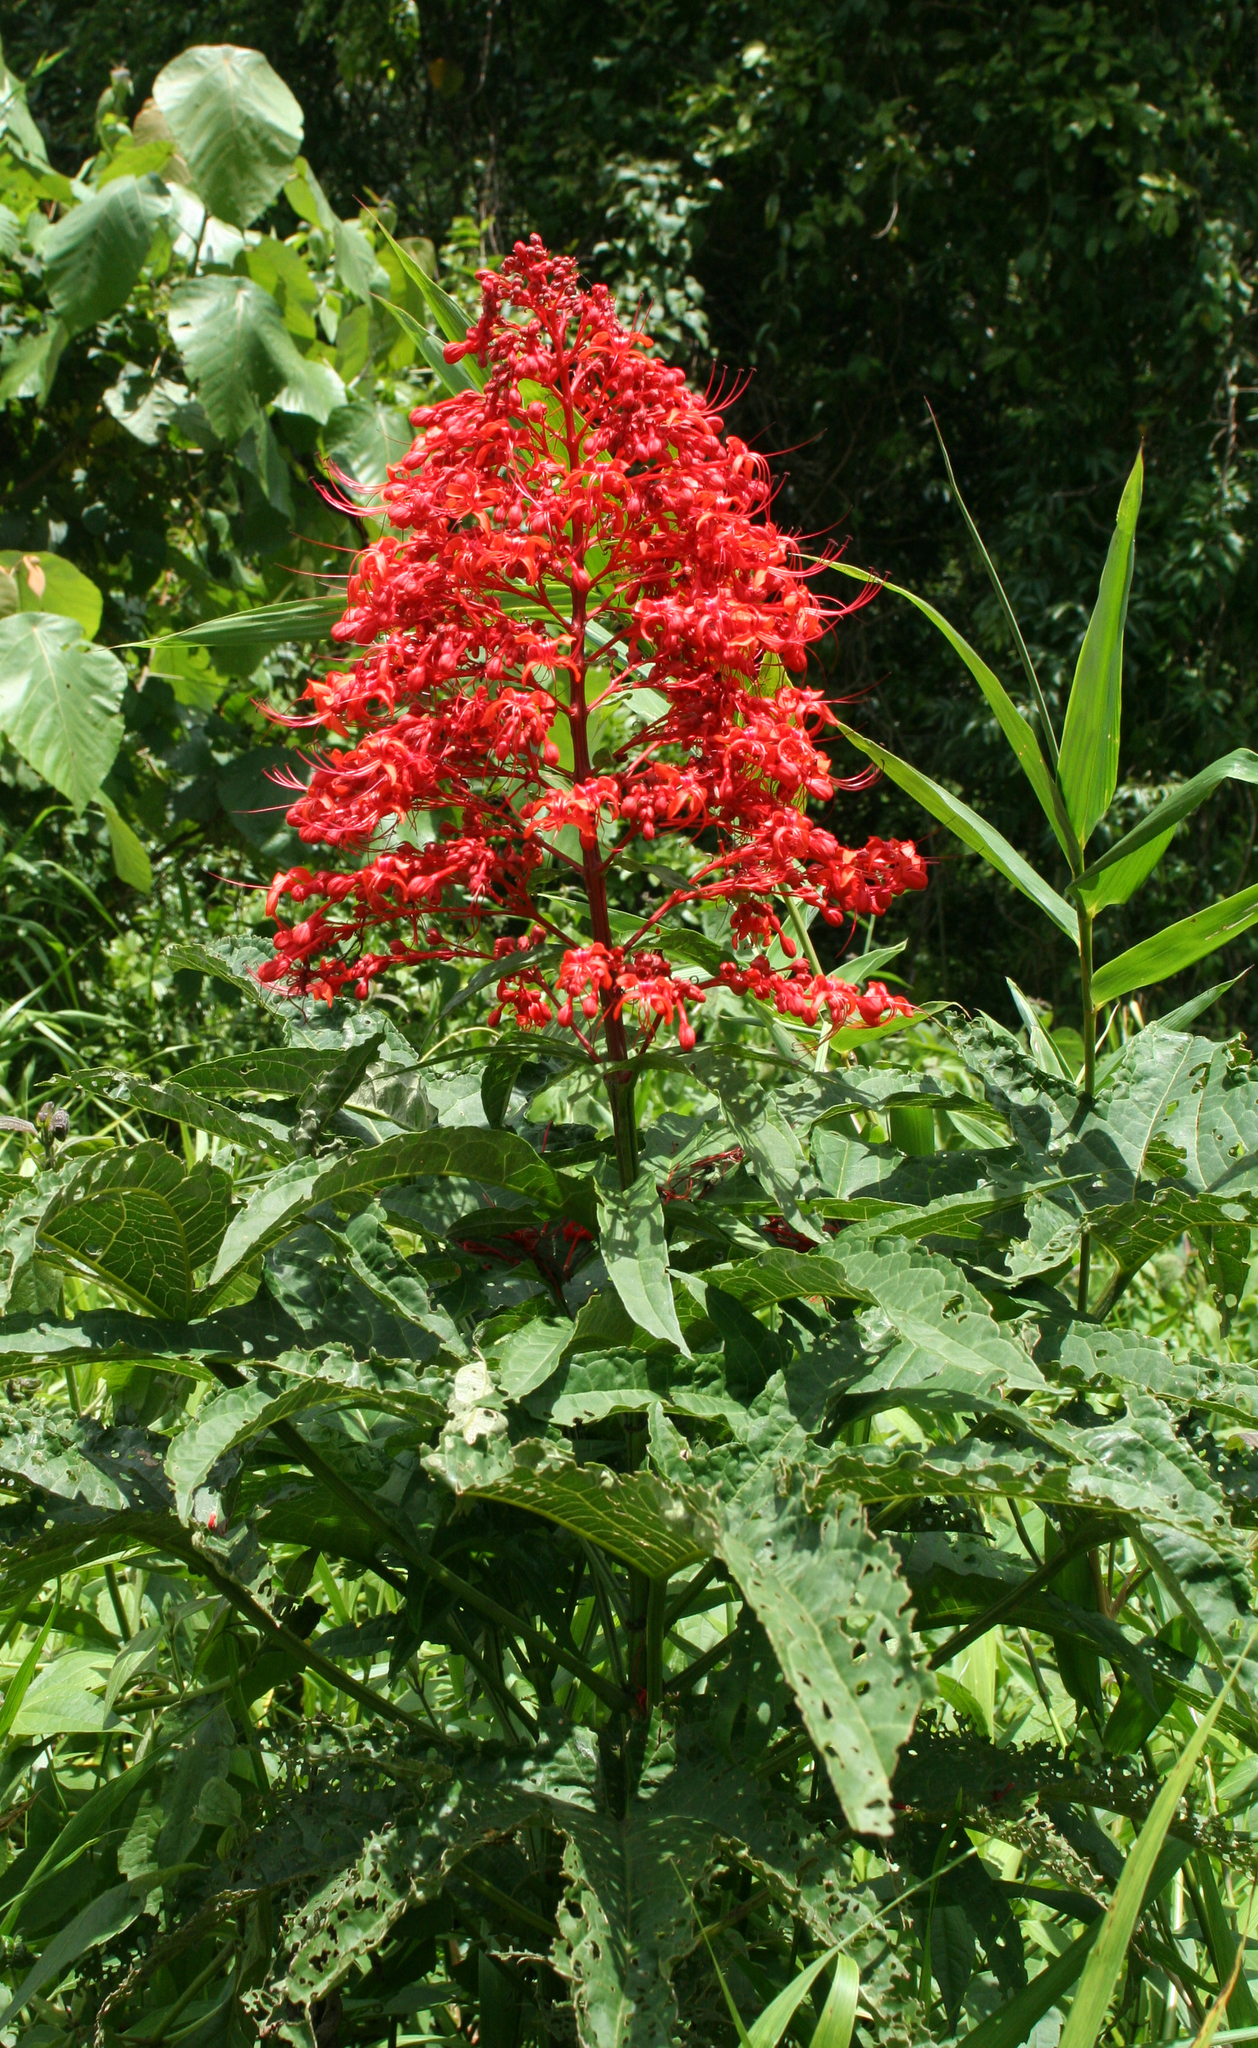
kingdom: Plantae
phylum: Tracheophyta
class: Magnoliopsida
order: Lamiales
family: Lamiaceae
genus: Clerodendrum
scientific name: Clerodendrum palmatolobatum
